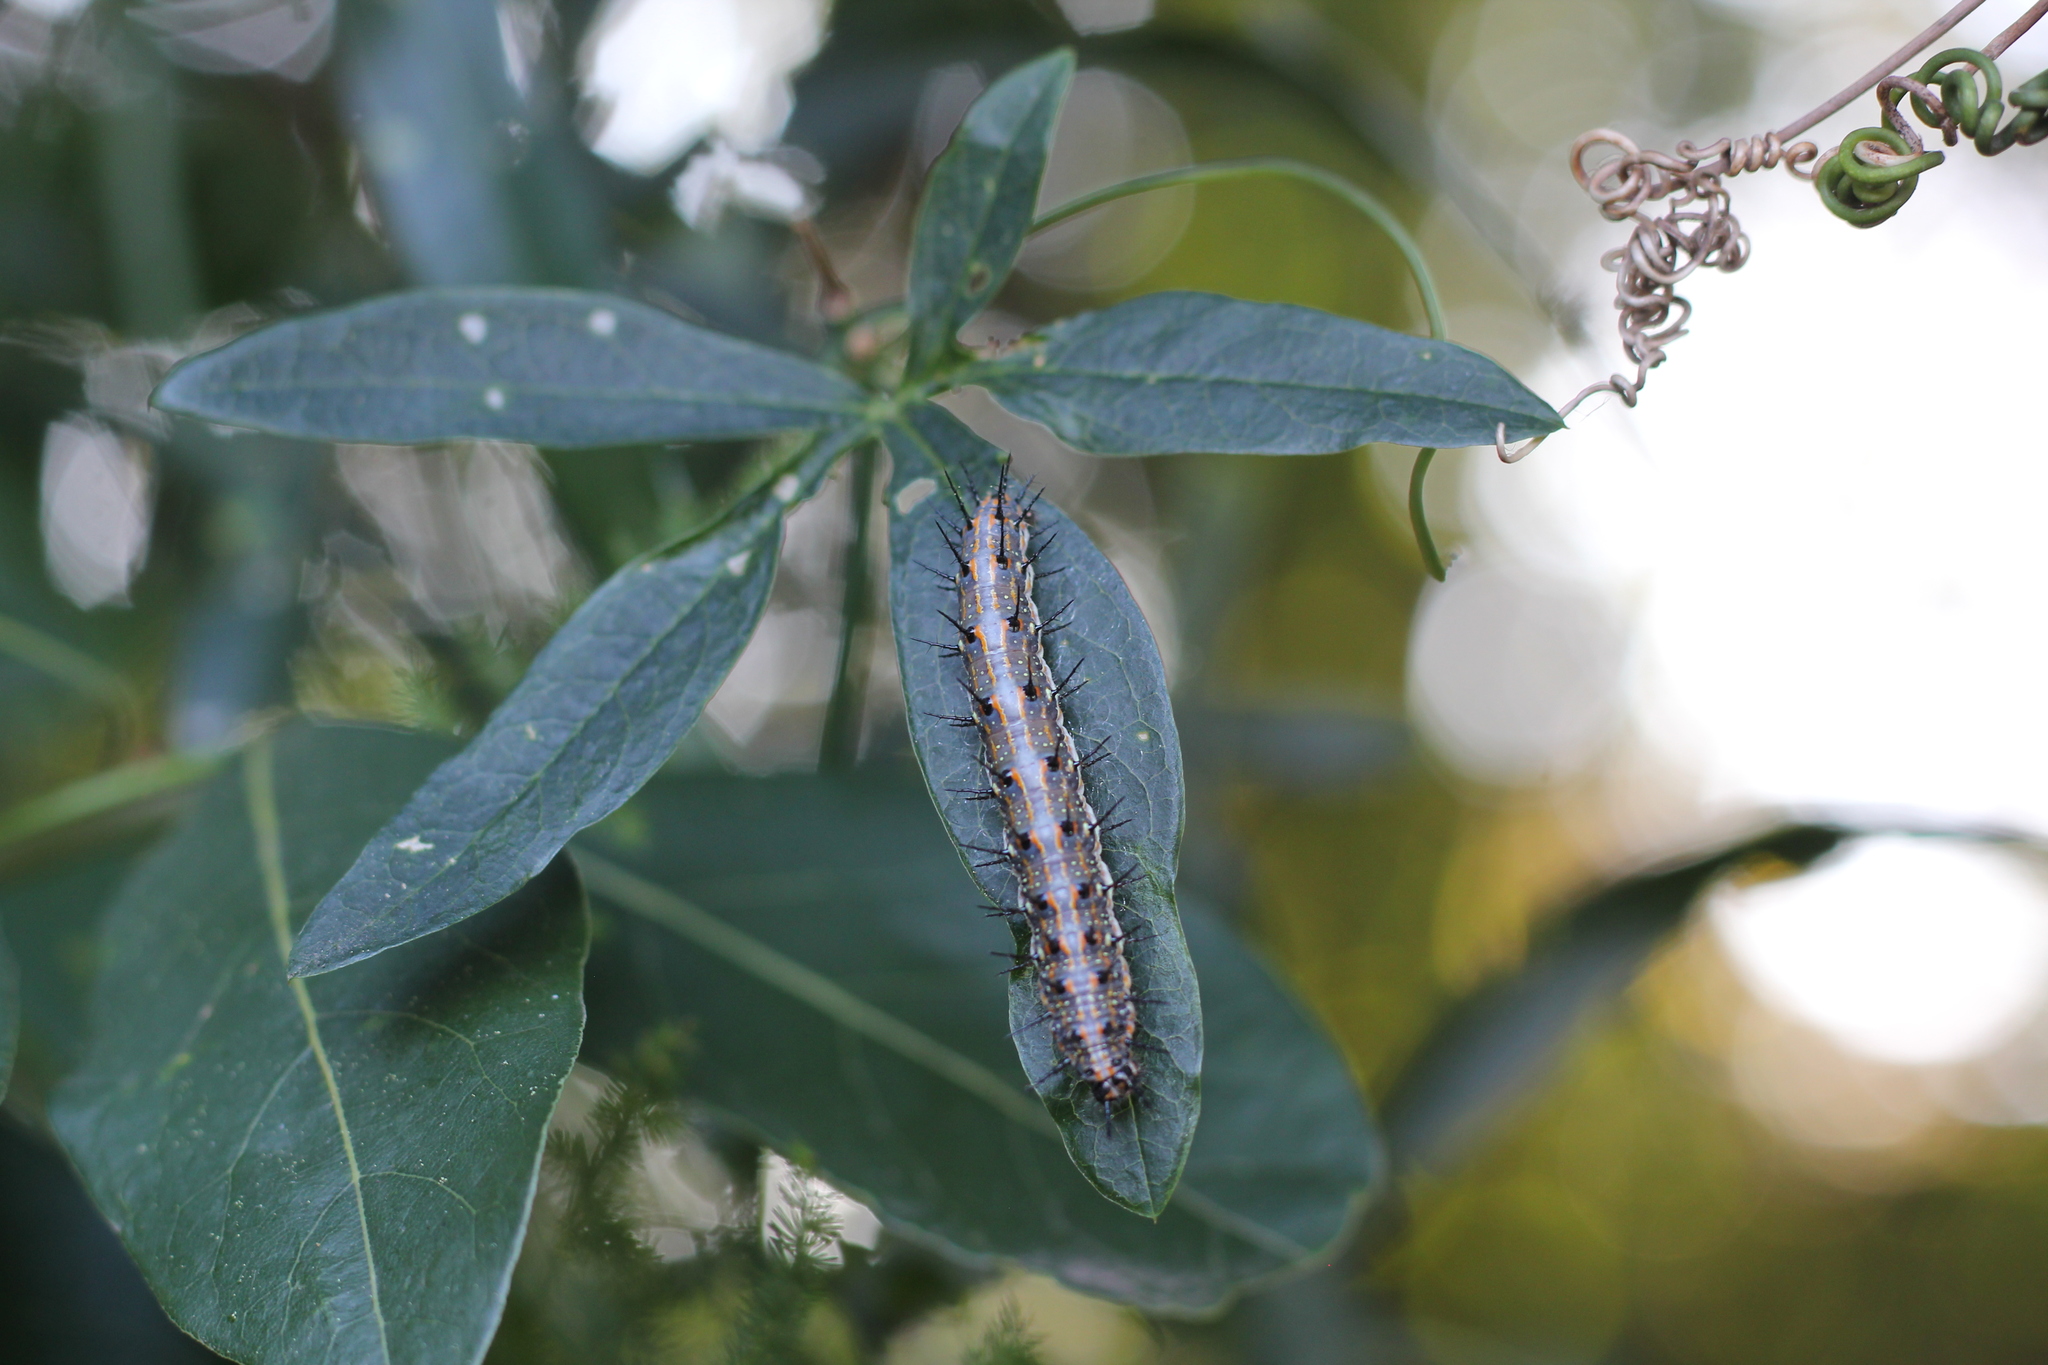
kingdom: Animalia
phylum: Arthropoda
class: Insecta
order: Lepidoptera
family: Nymphalidae
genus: Dione
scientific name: Dione vanillae
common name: Gulf fritillary
